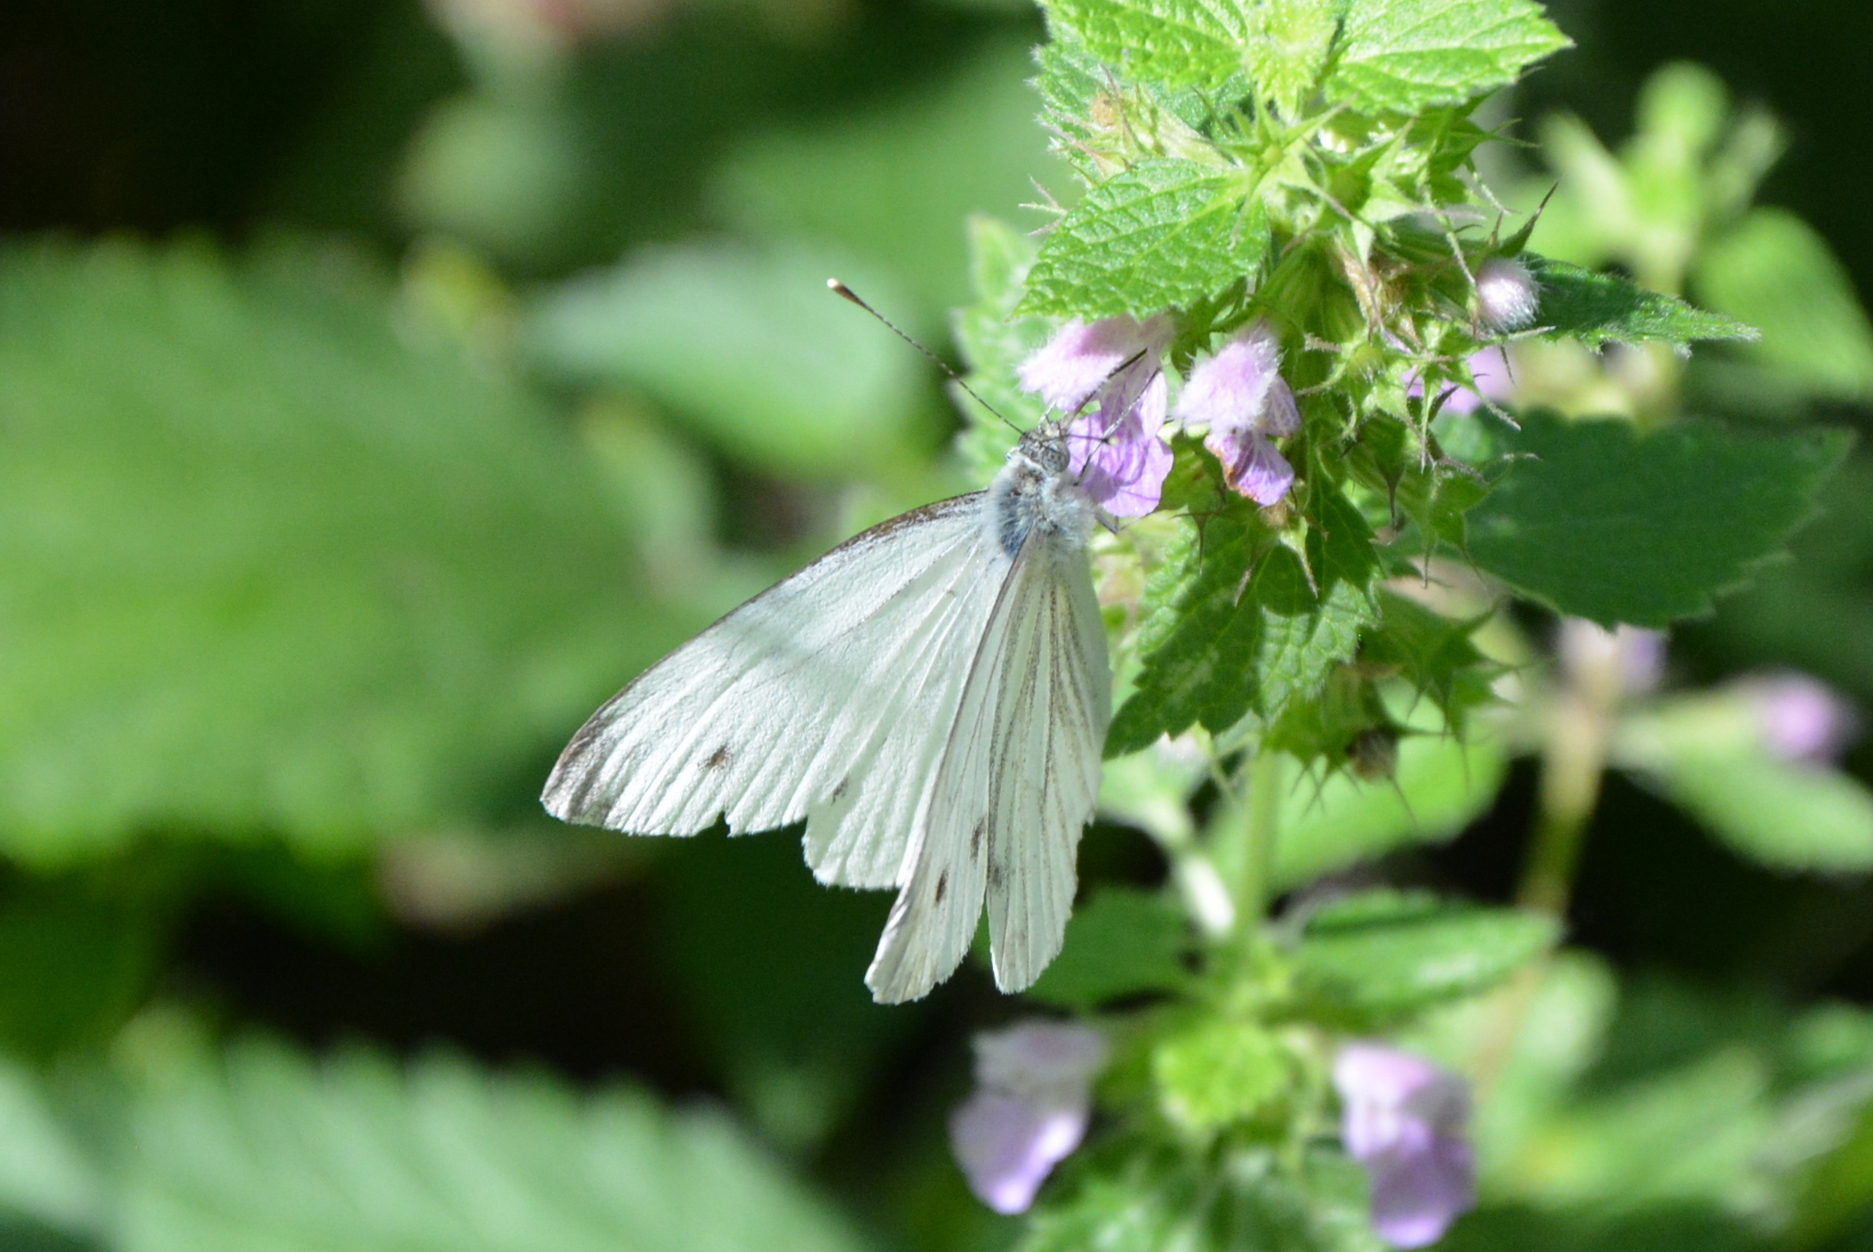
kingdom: Animalia
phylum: Arthropoda
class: Insecta
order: Lepidoptera
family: Pieridae
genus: Pieris
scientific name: Pieris napi
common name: Green-veined white
